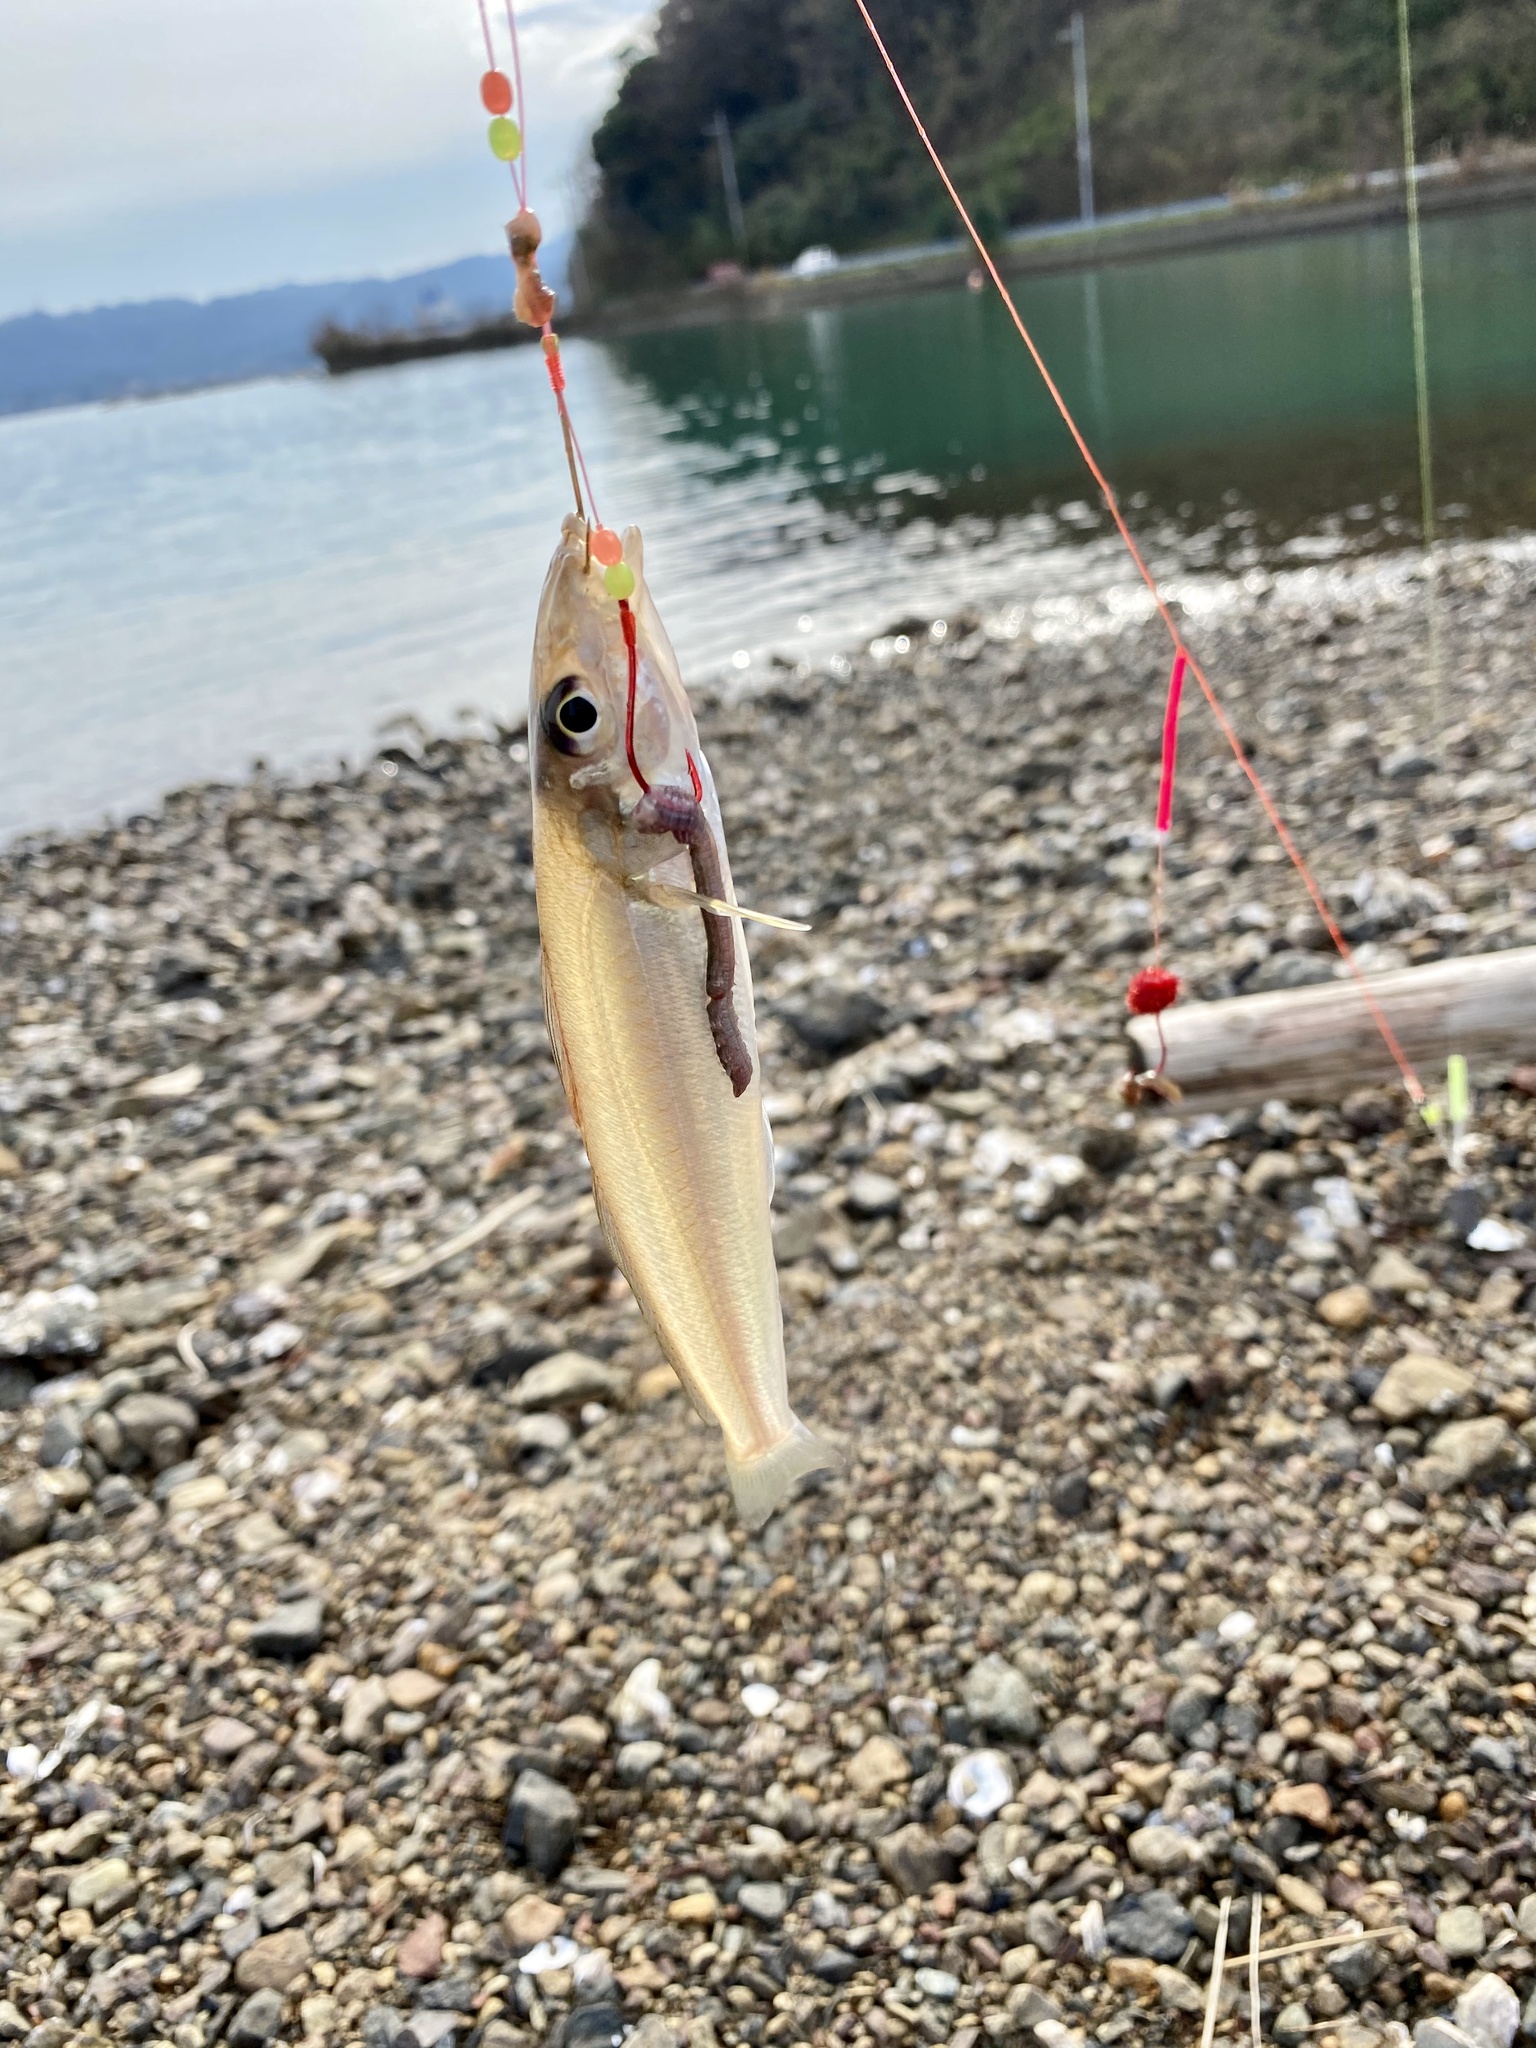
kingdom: Animalia
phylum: Chordata
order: Perciformes
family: Sillaginidae
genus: Sillago
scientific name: Sillago japonica
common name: Japanese sillago
